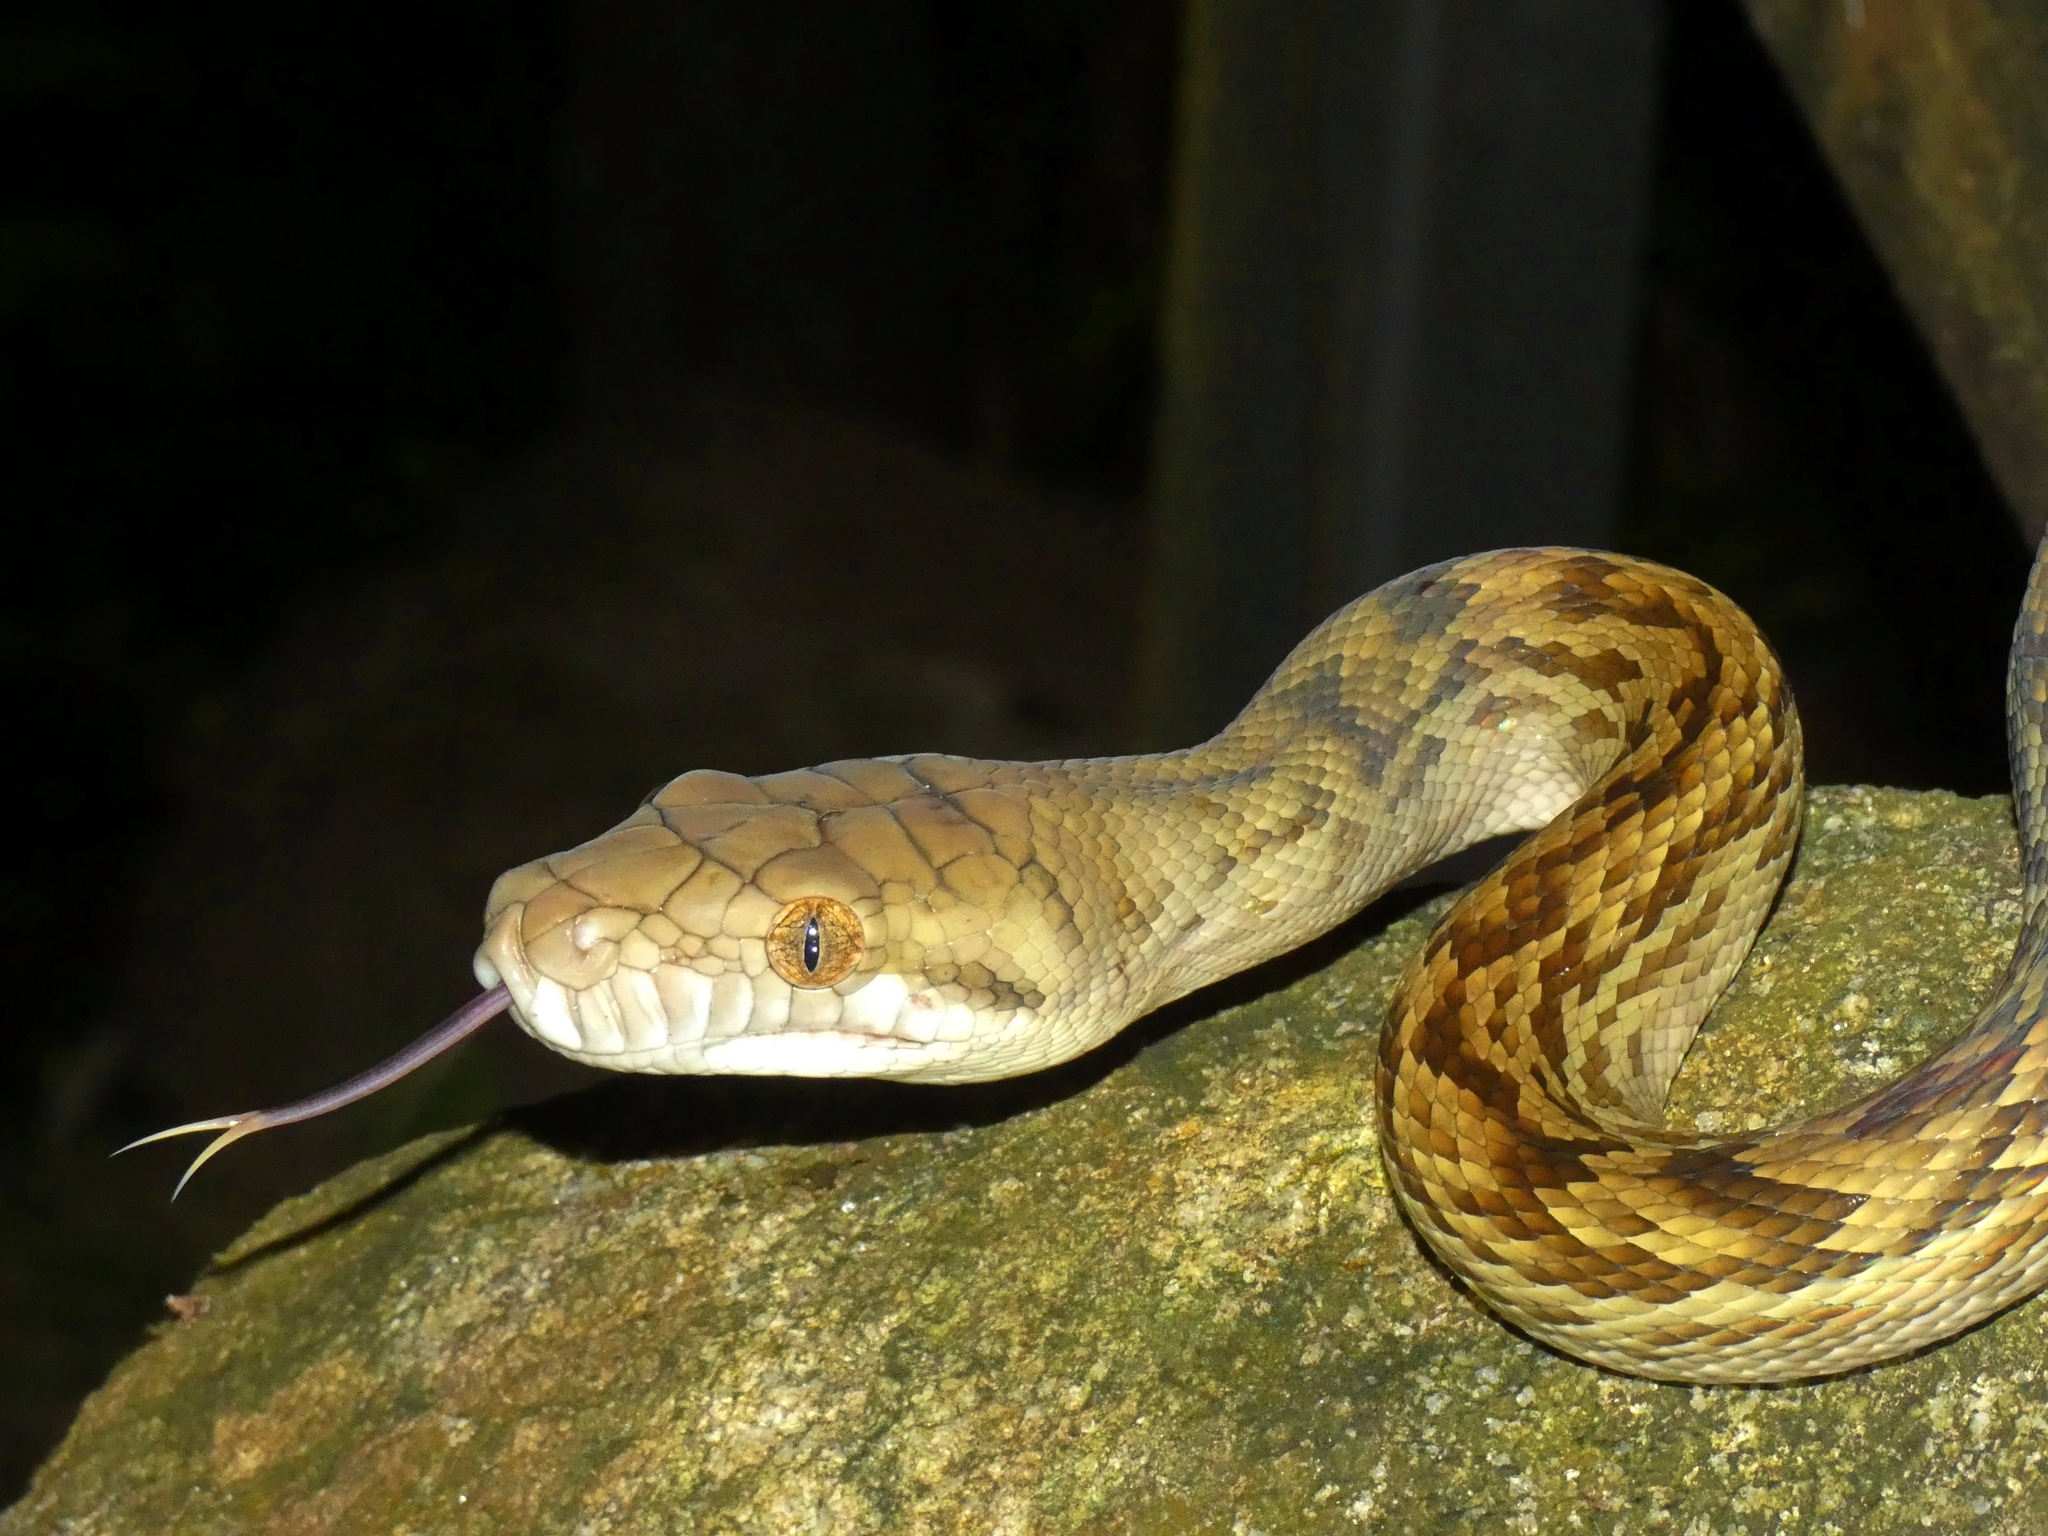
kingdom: Animalia
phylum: Chordata
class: Squamata
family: Pythonidae
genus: Simalia
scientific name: Simalia kinghorni
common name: Scrub python
